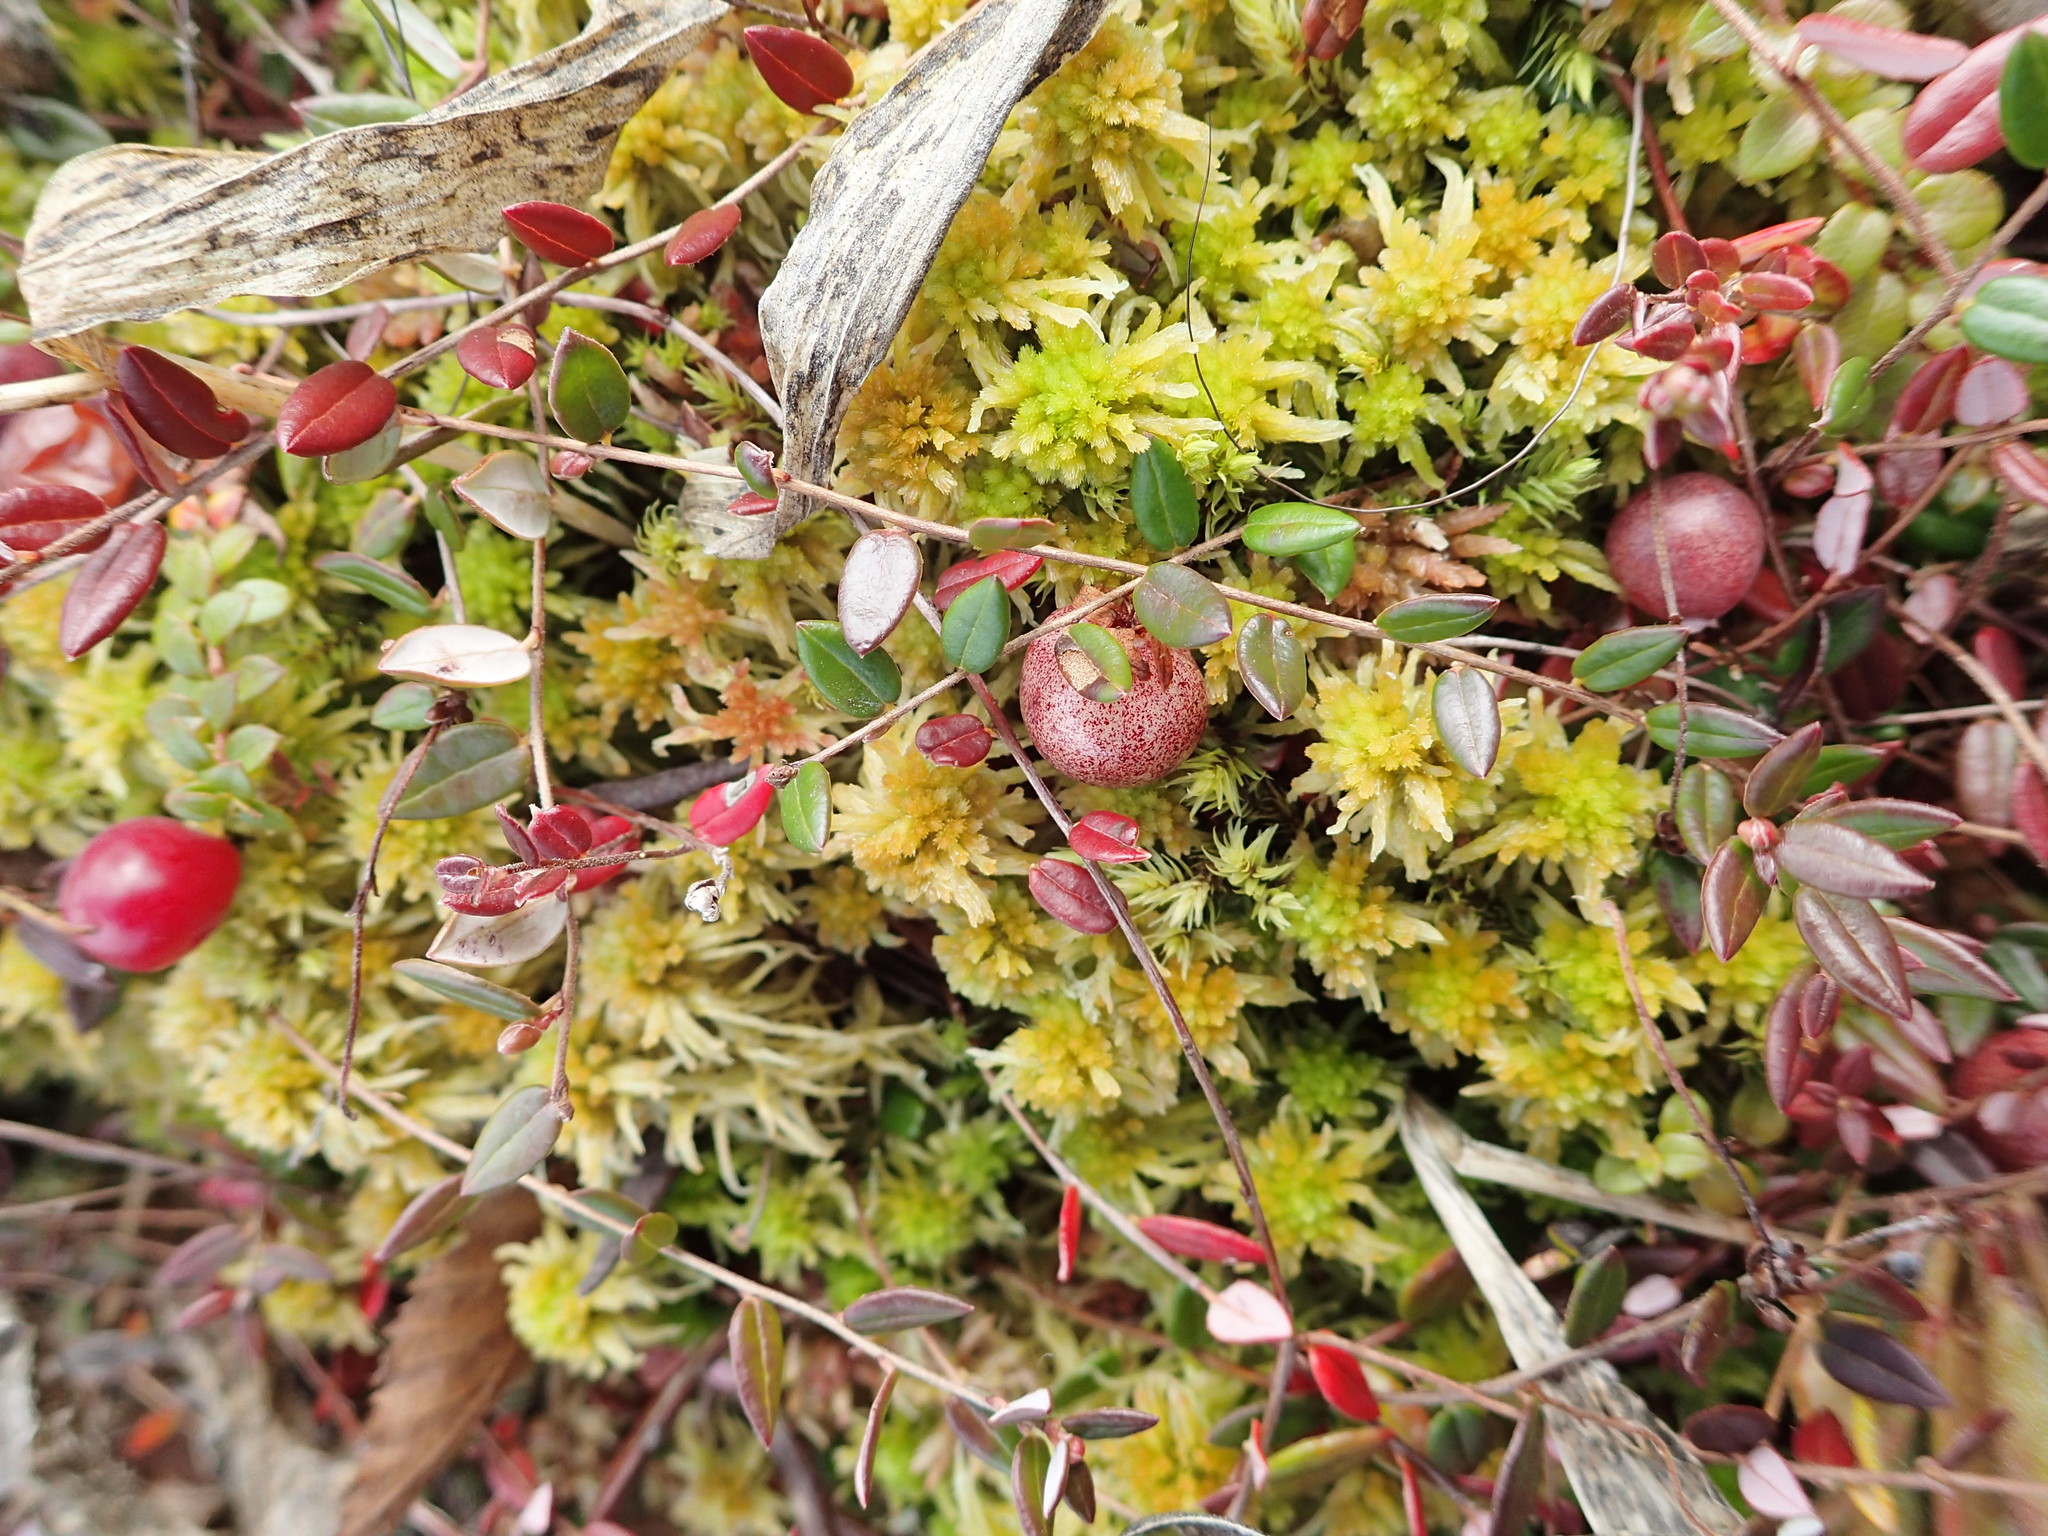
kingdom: Plantae
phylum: Tracheophyta
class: Magnoliopsida
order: Ericales
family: Ericaceae
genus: Vaccinium
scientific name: Vaccinium oxycoccos
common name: Cranberry
